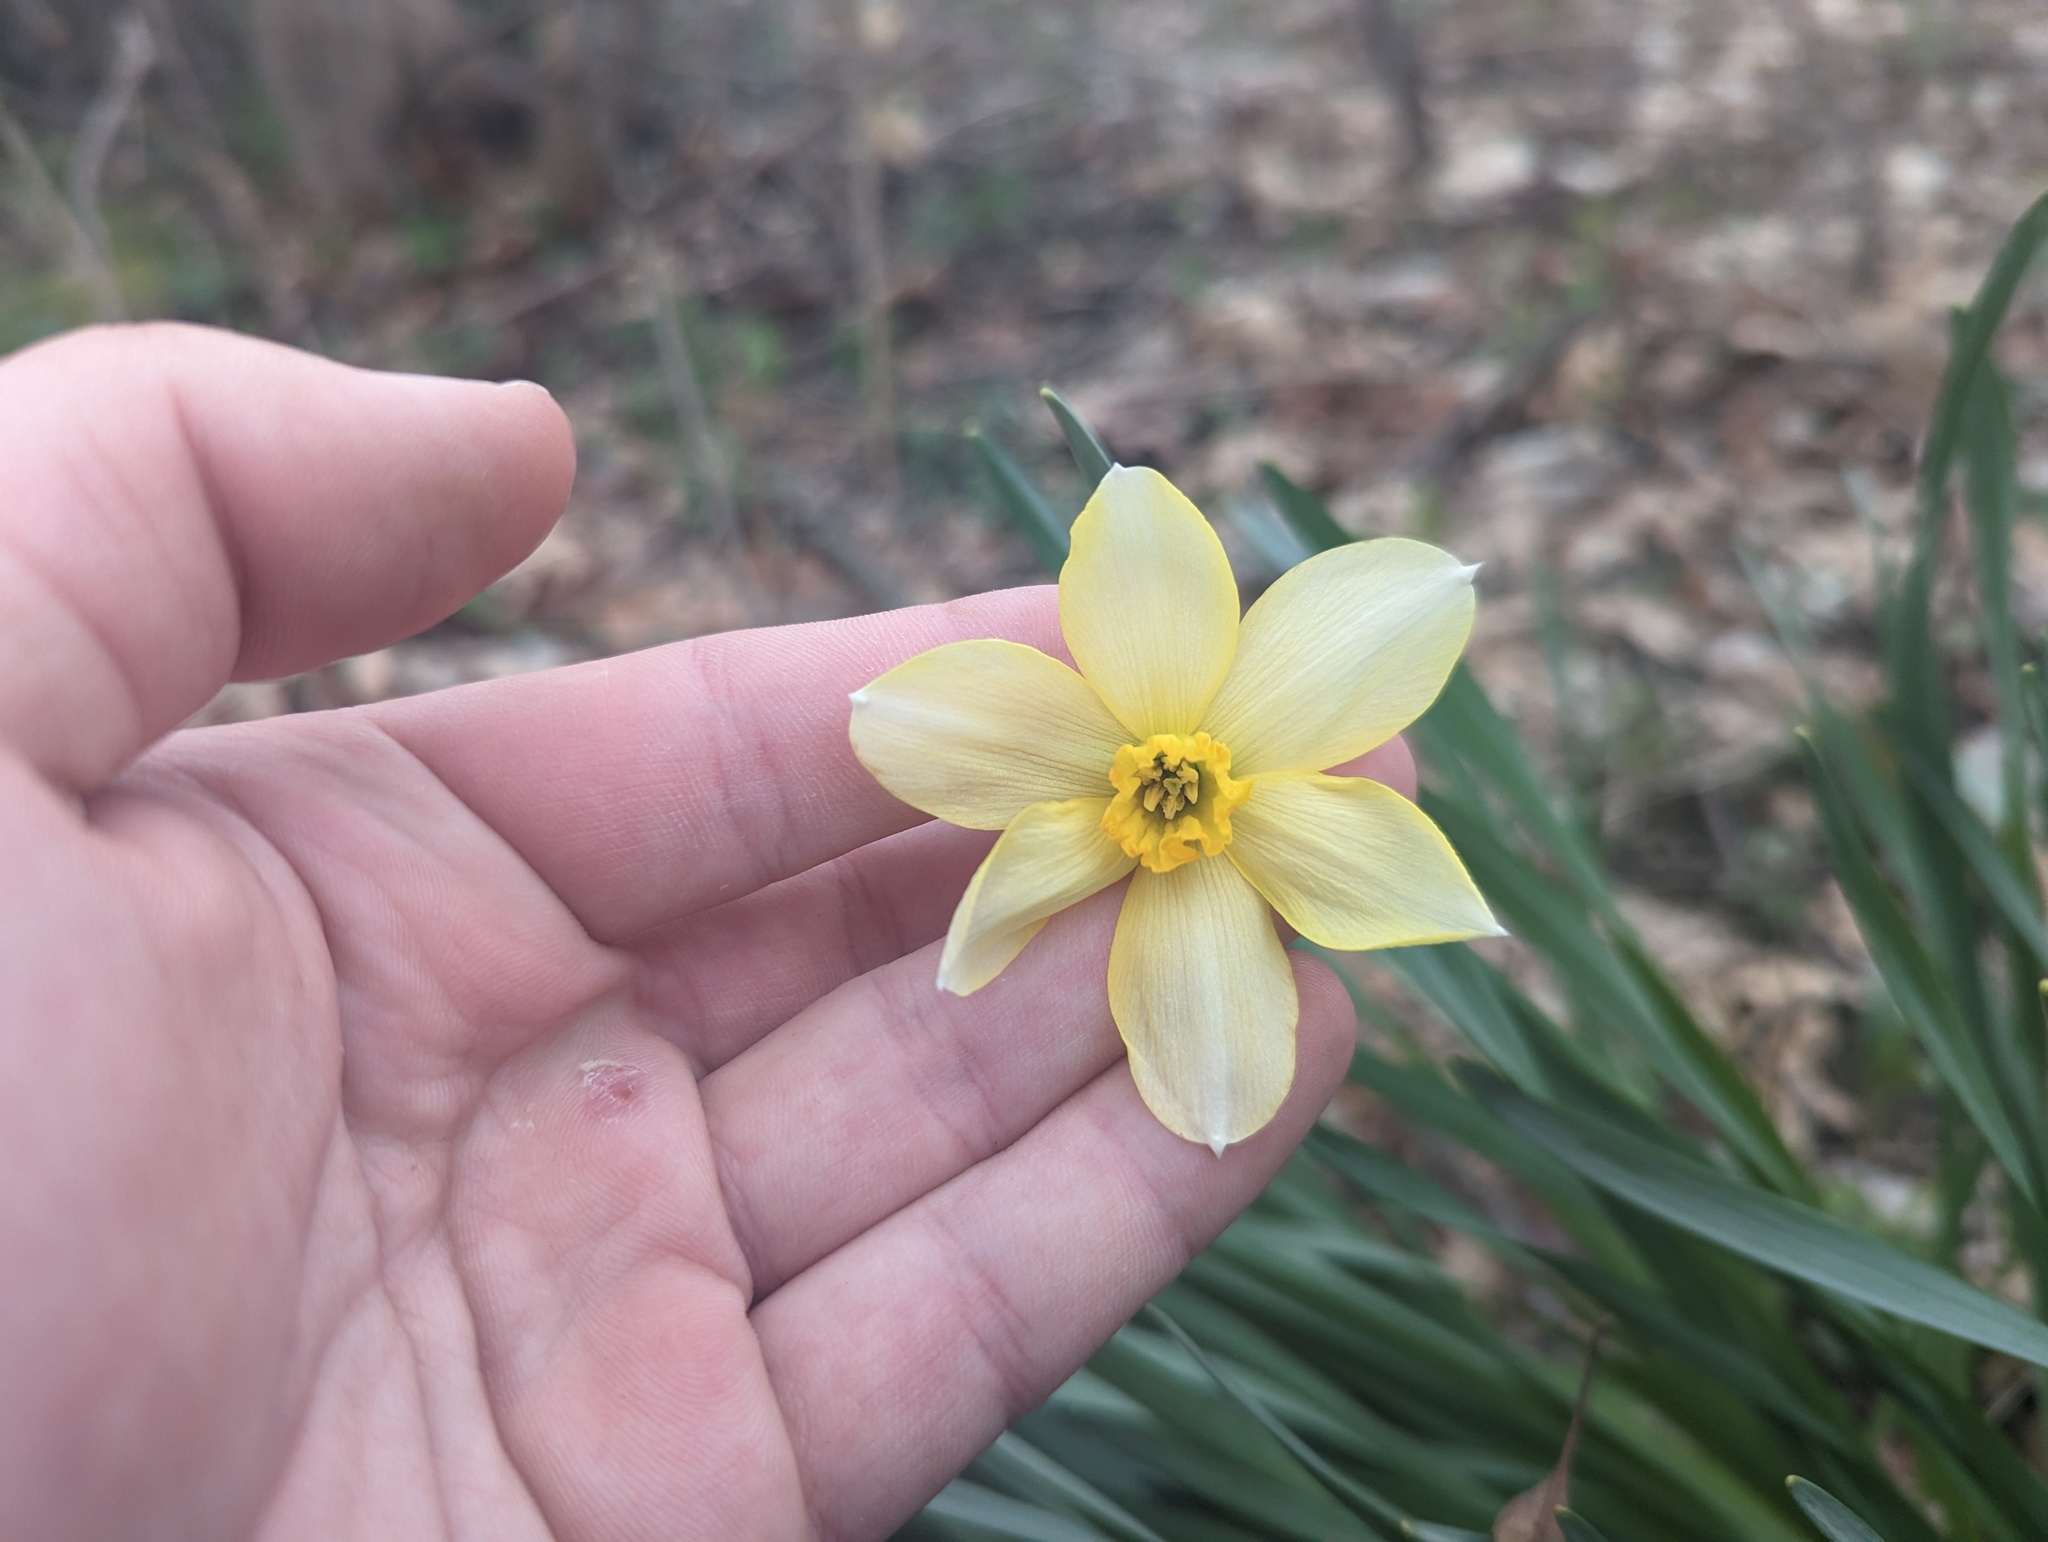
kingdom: Plantae
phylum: Tracheophyta
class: Liliopsida
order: Asparagales
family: Amaryllidaceae
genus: Narcissus
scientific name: Narcissus jonquilla
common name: Jonquil
